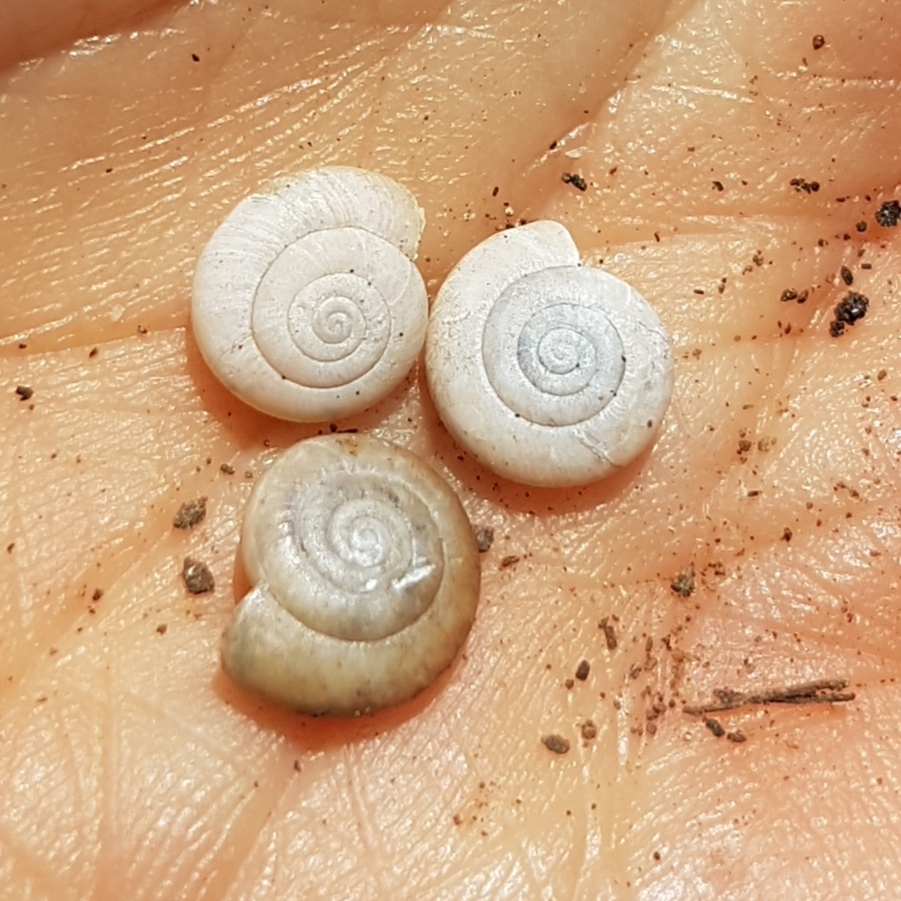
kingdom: Animalia
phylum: Mollusca
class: Gastropoda
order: Stylommatophora
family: Oxychilidae
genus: Oxychilus
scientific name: Oxychilus lentiformis
